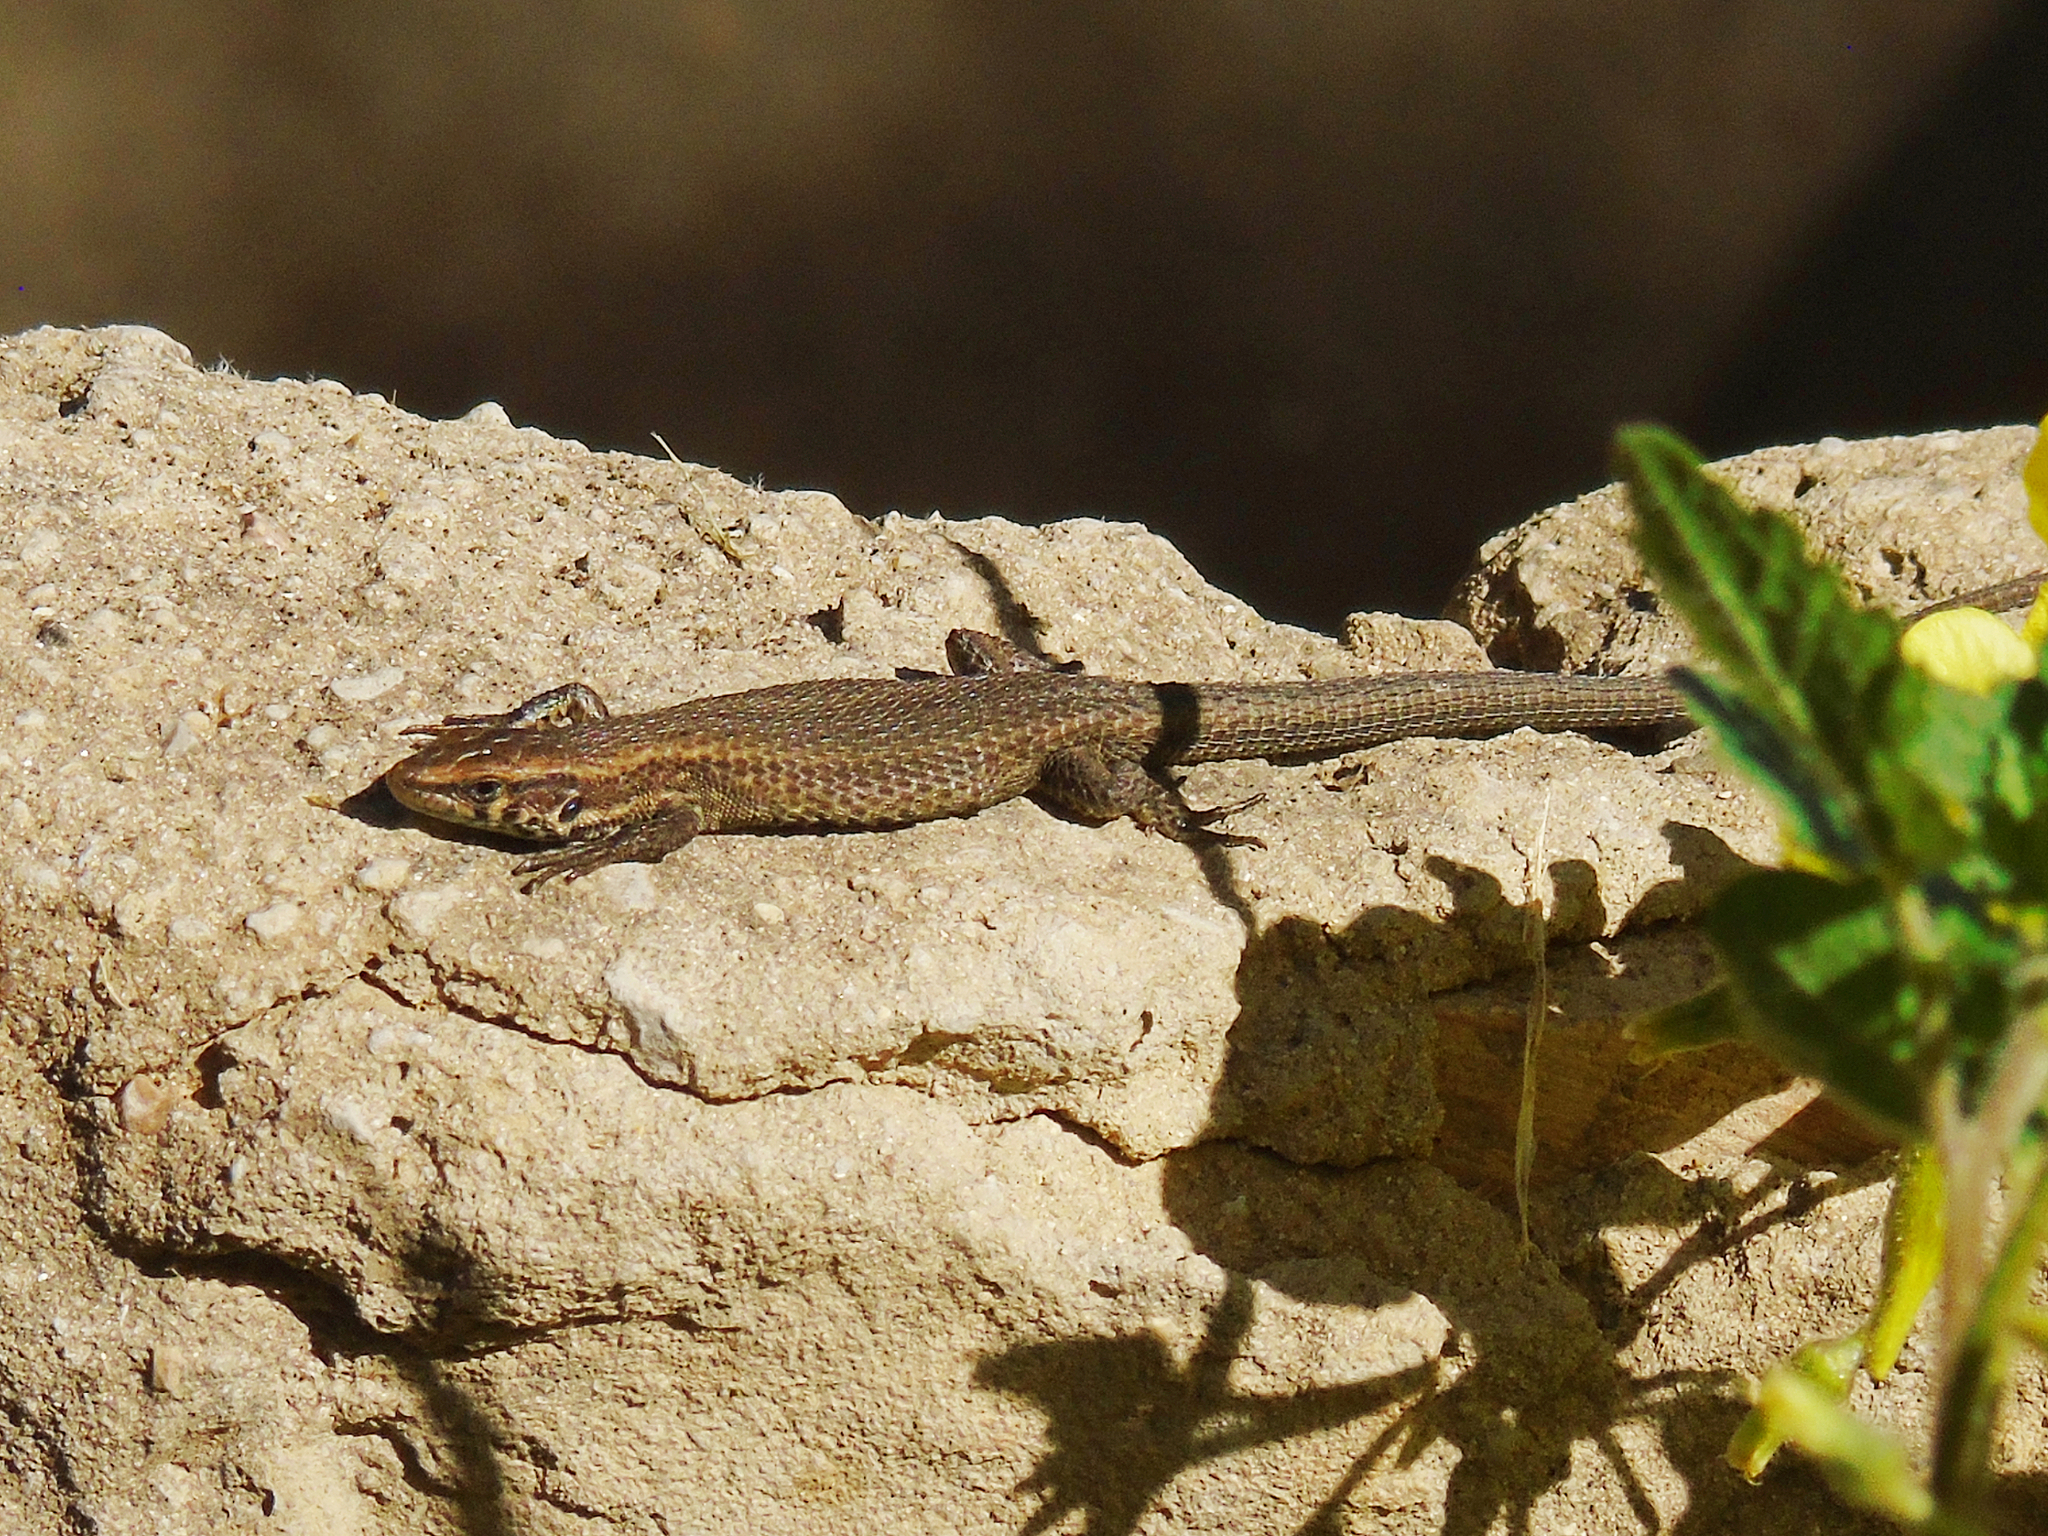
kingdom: Animalia
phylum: Chordata
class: Squamata
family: Lacertidae
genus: Algyroides
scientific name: Algyroides moreoticus
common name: Greek algyroides
